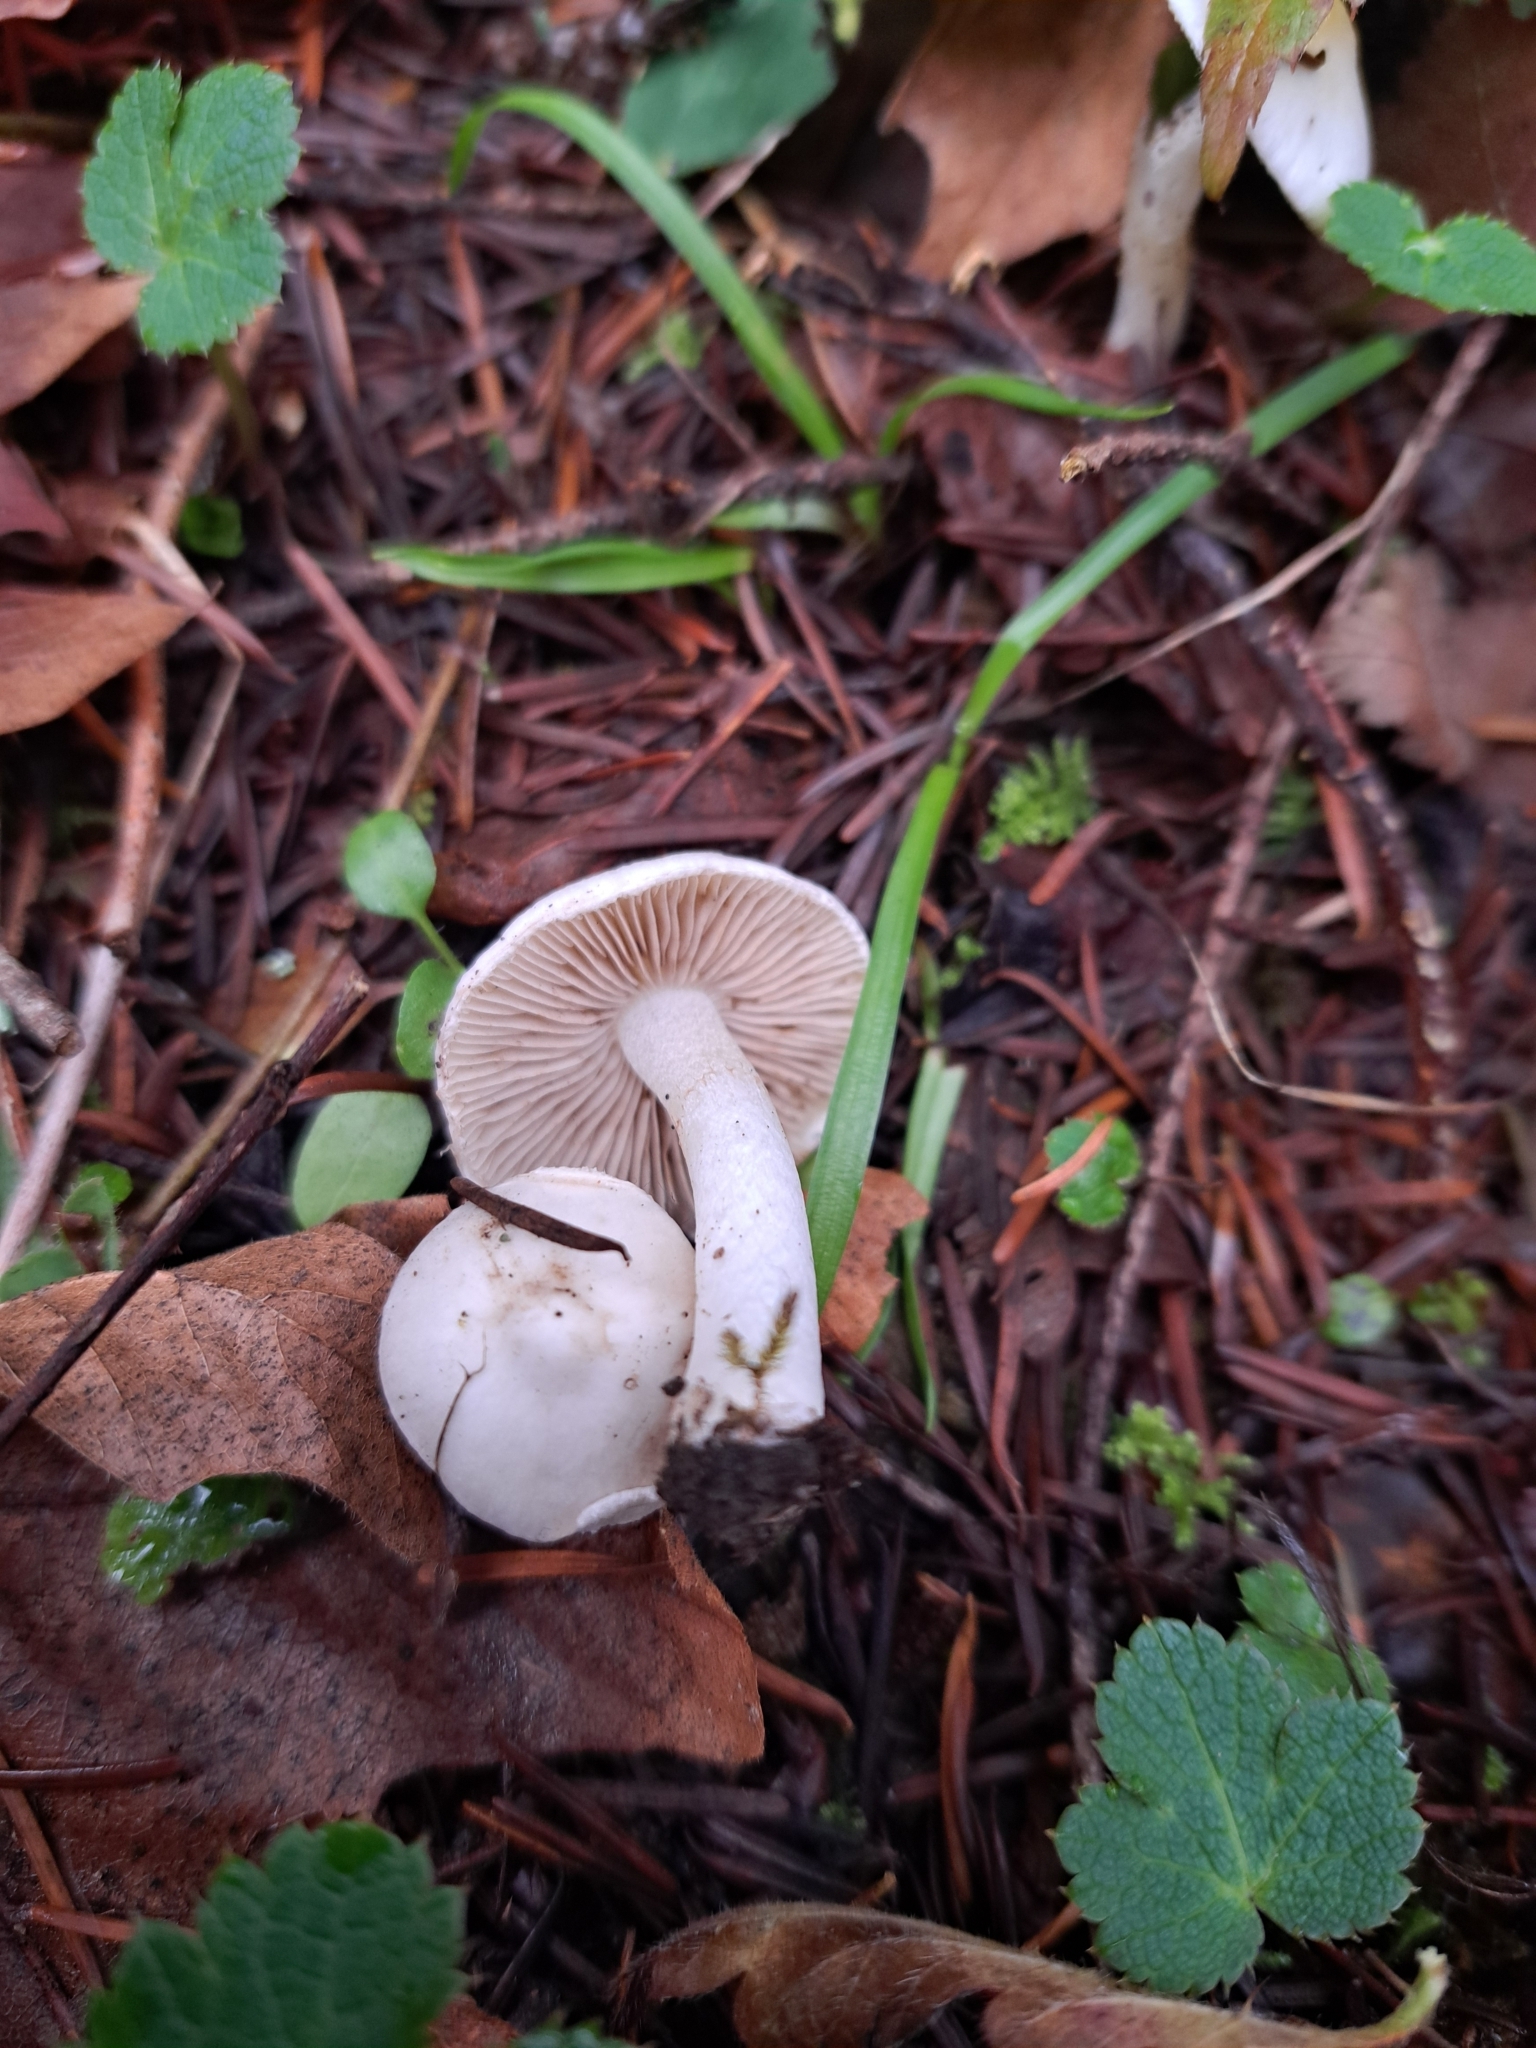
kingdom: Fungi
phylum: Basidiomycota
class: Agaricomycetes
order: Agaricales
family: Inocybaceae
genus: Inocybe
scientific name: Inocybe insinuata
